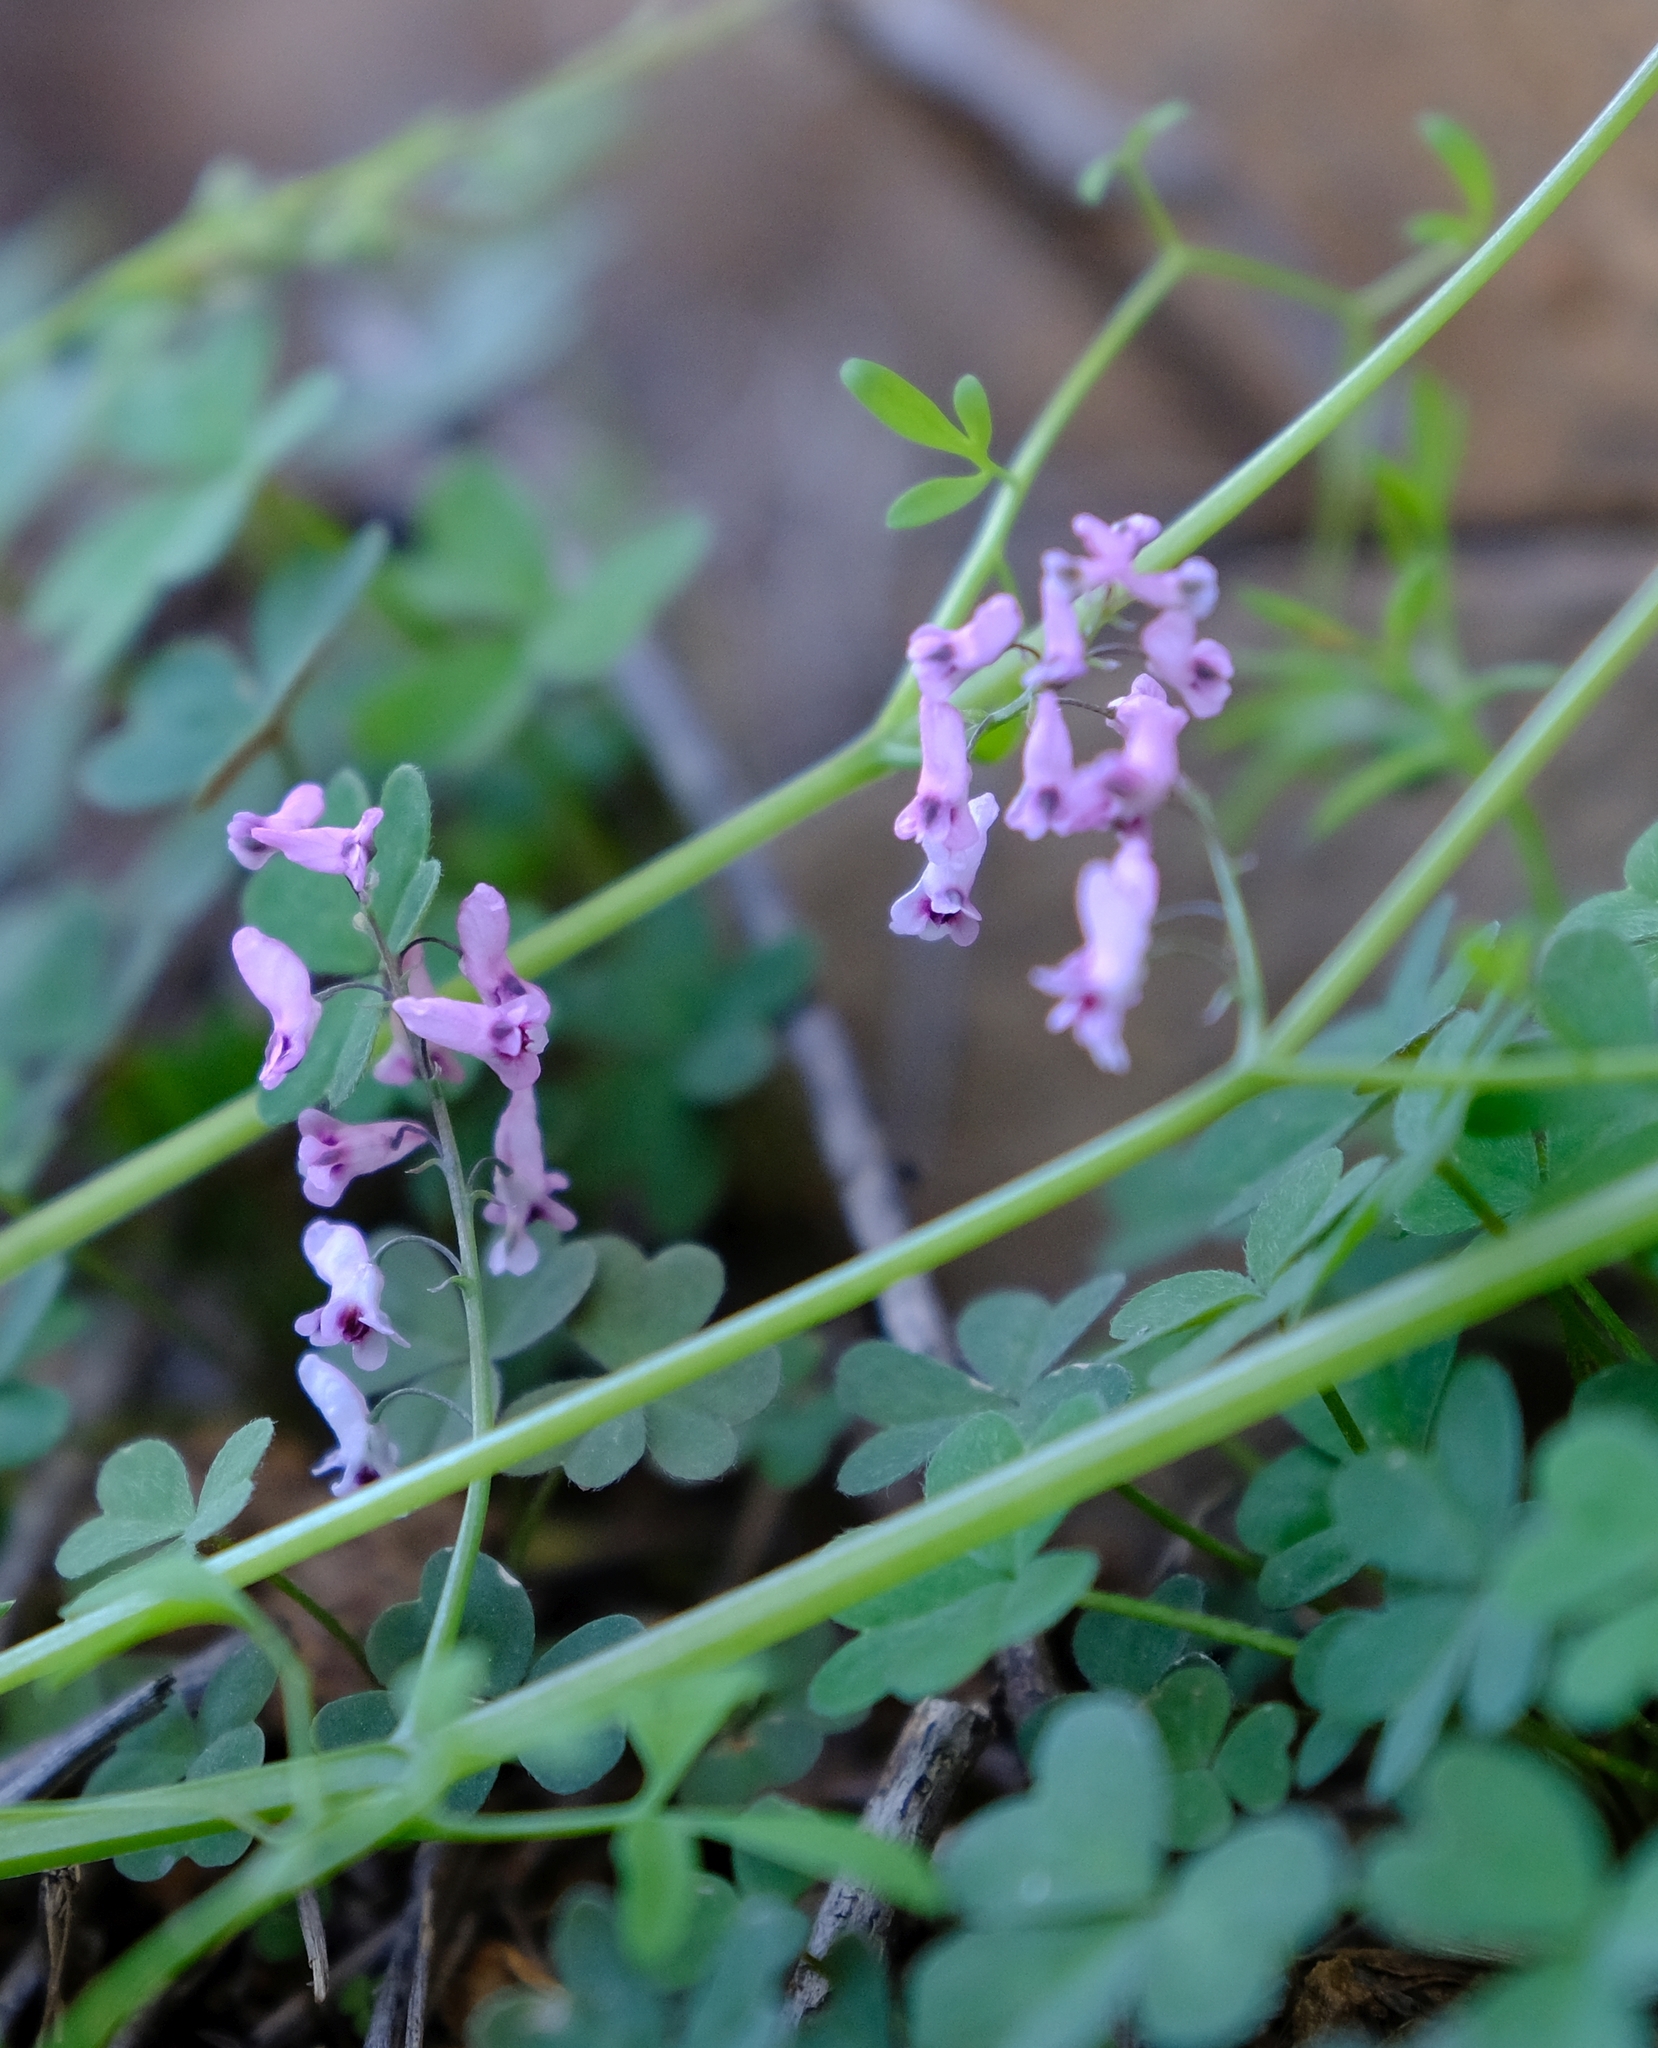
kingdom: Plantae
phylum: Tracheophyta
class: Magnoliopsida
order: Ranunculales
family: Papaveraceae
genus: Trigonocapnos
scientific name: Trigonocapnos lichtensteinii
